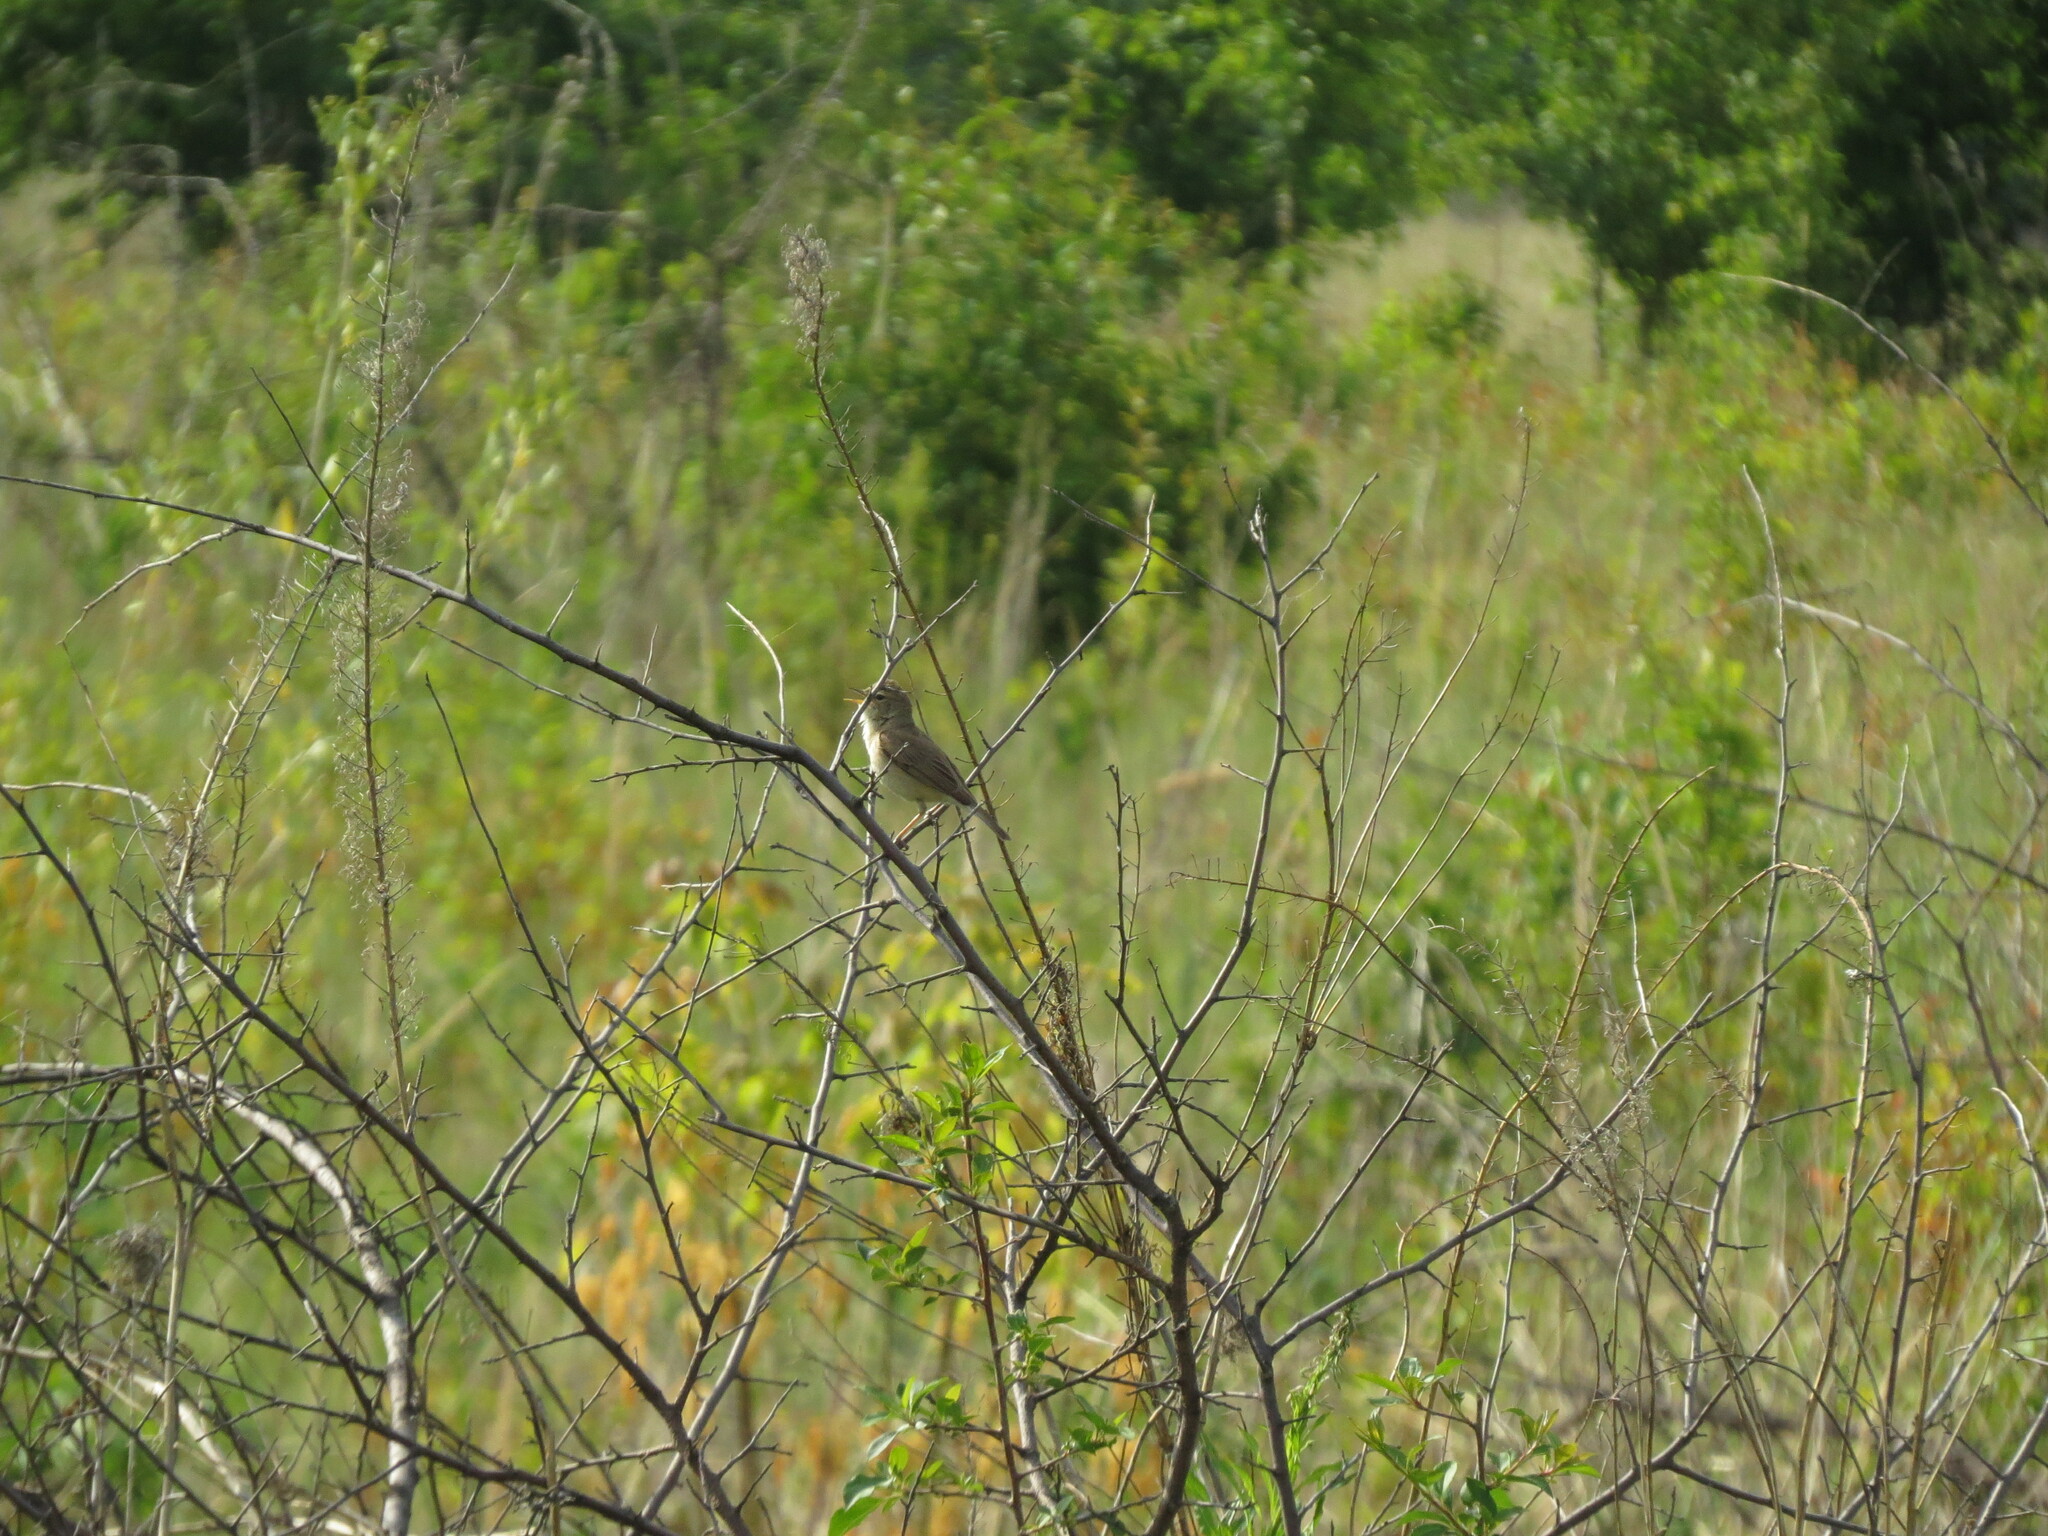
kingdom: Animalia
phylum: Chordata
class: Aves
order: Passeriformes
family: Acrocephalidae
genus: Iduna
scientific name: Iduna caligata
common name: Booted warbler
